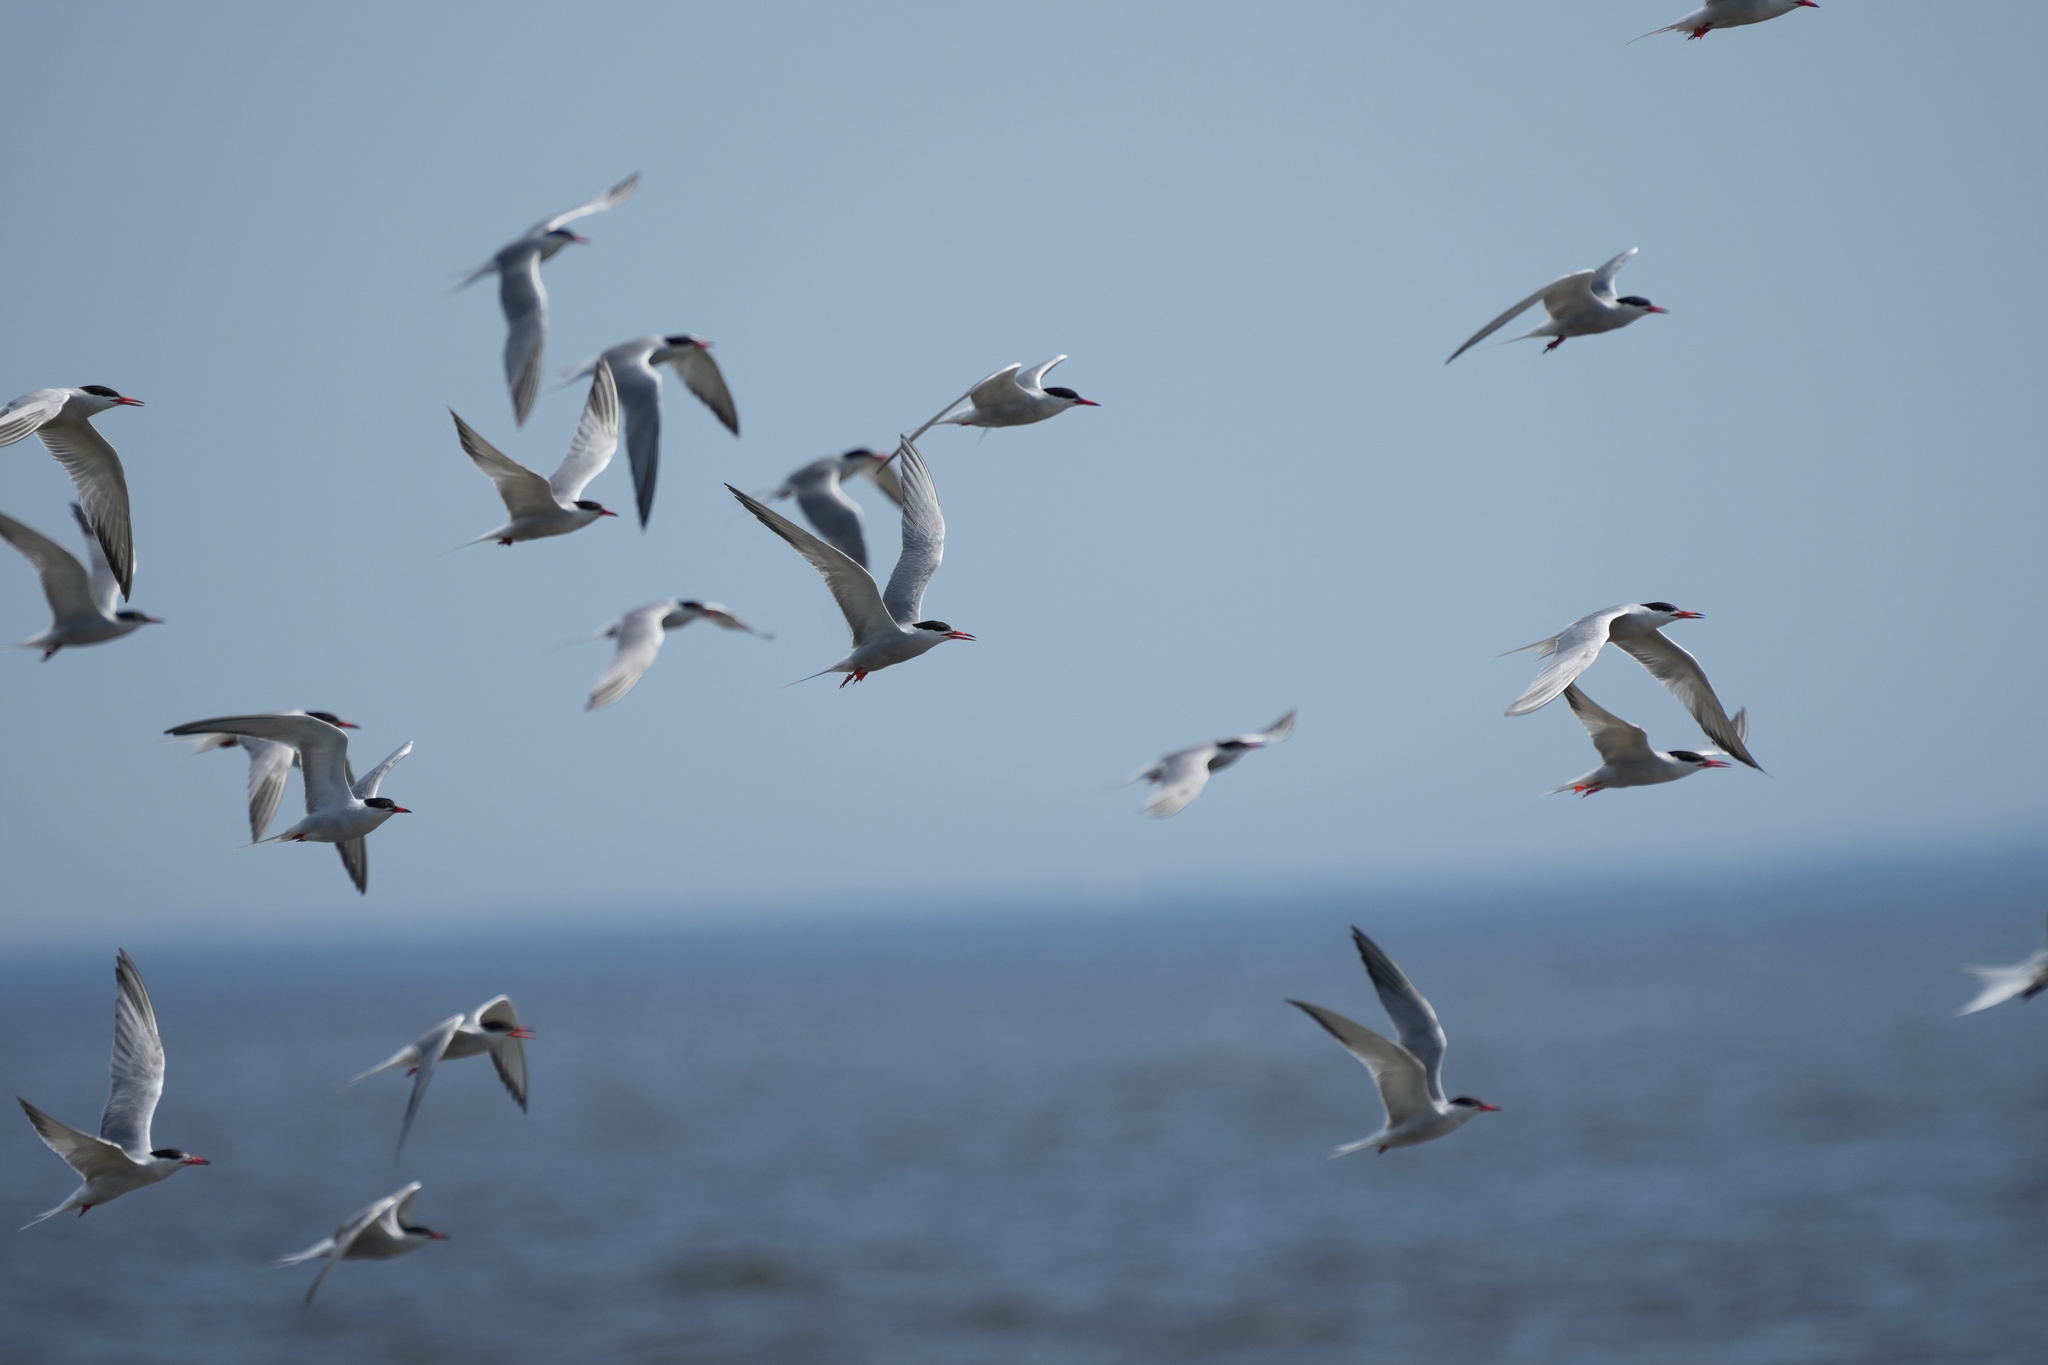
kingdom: Animalia
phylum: Chordata
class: Aves
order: Charadriiformes
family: Laridae
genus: Sterna
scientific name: Sterna hirundo
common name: Common tern
